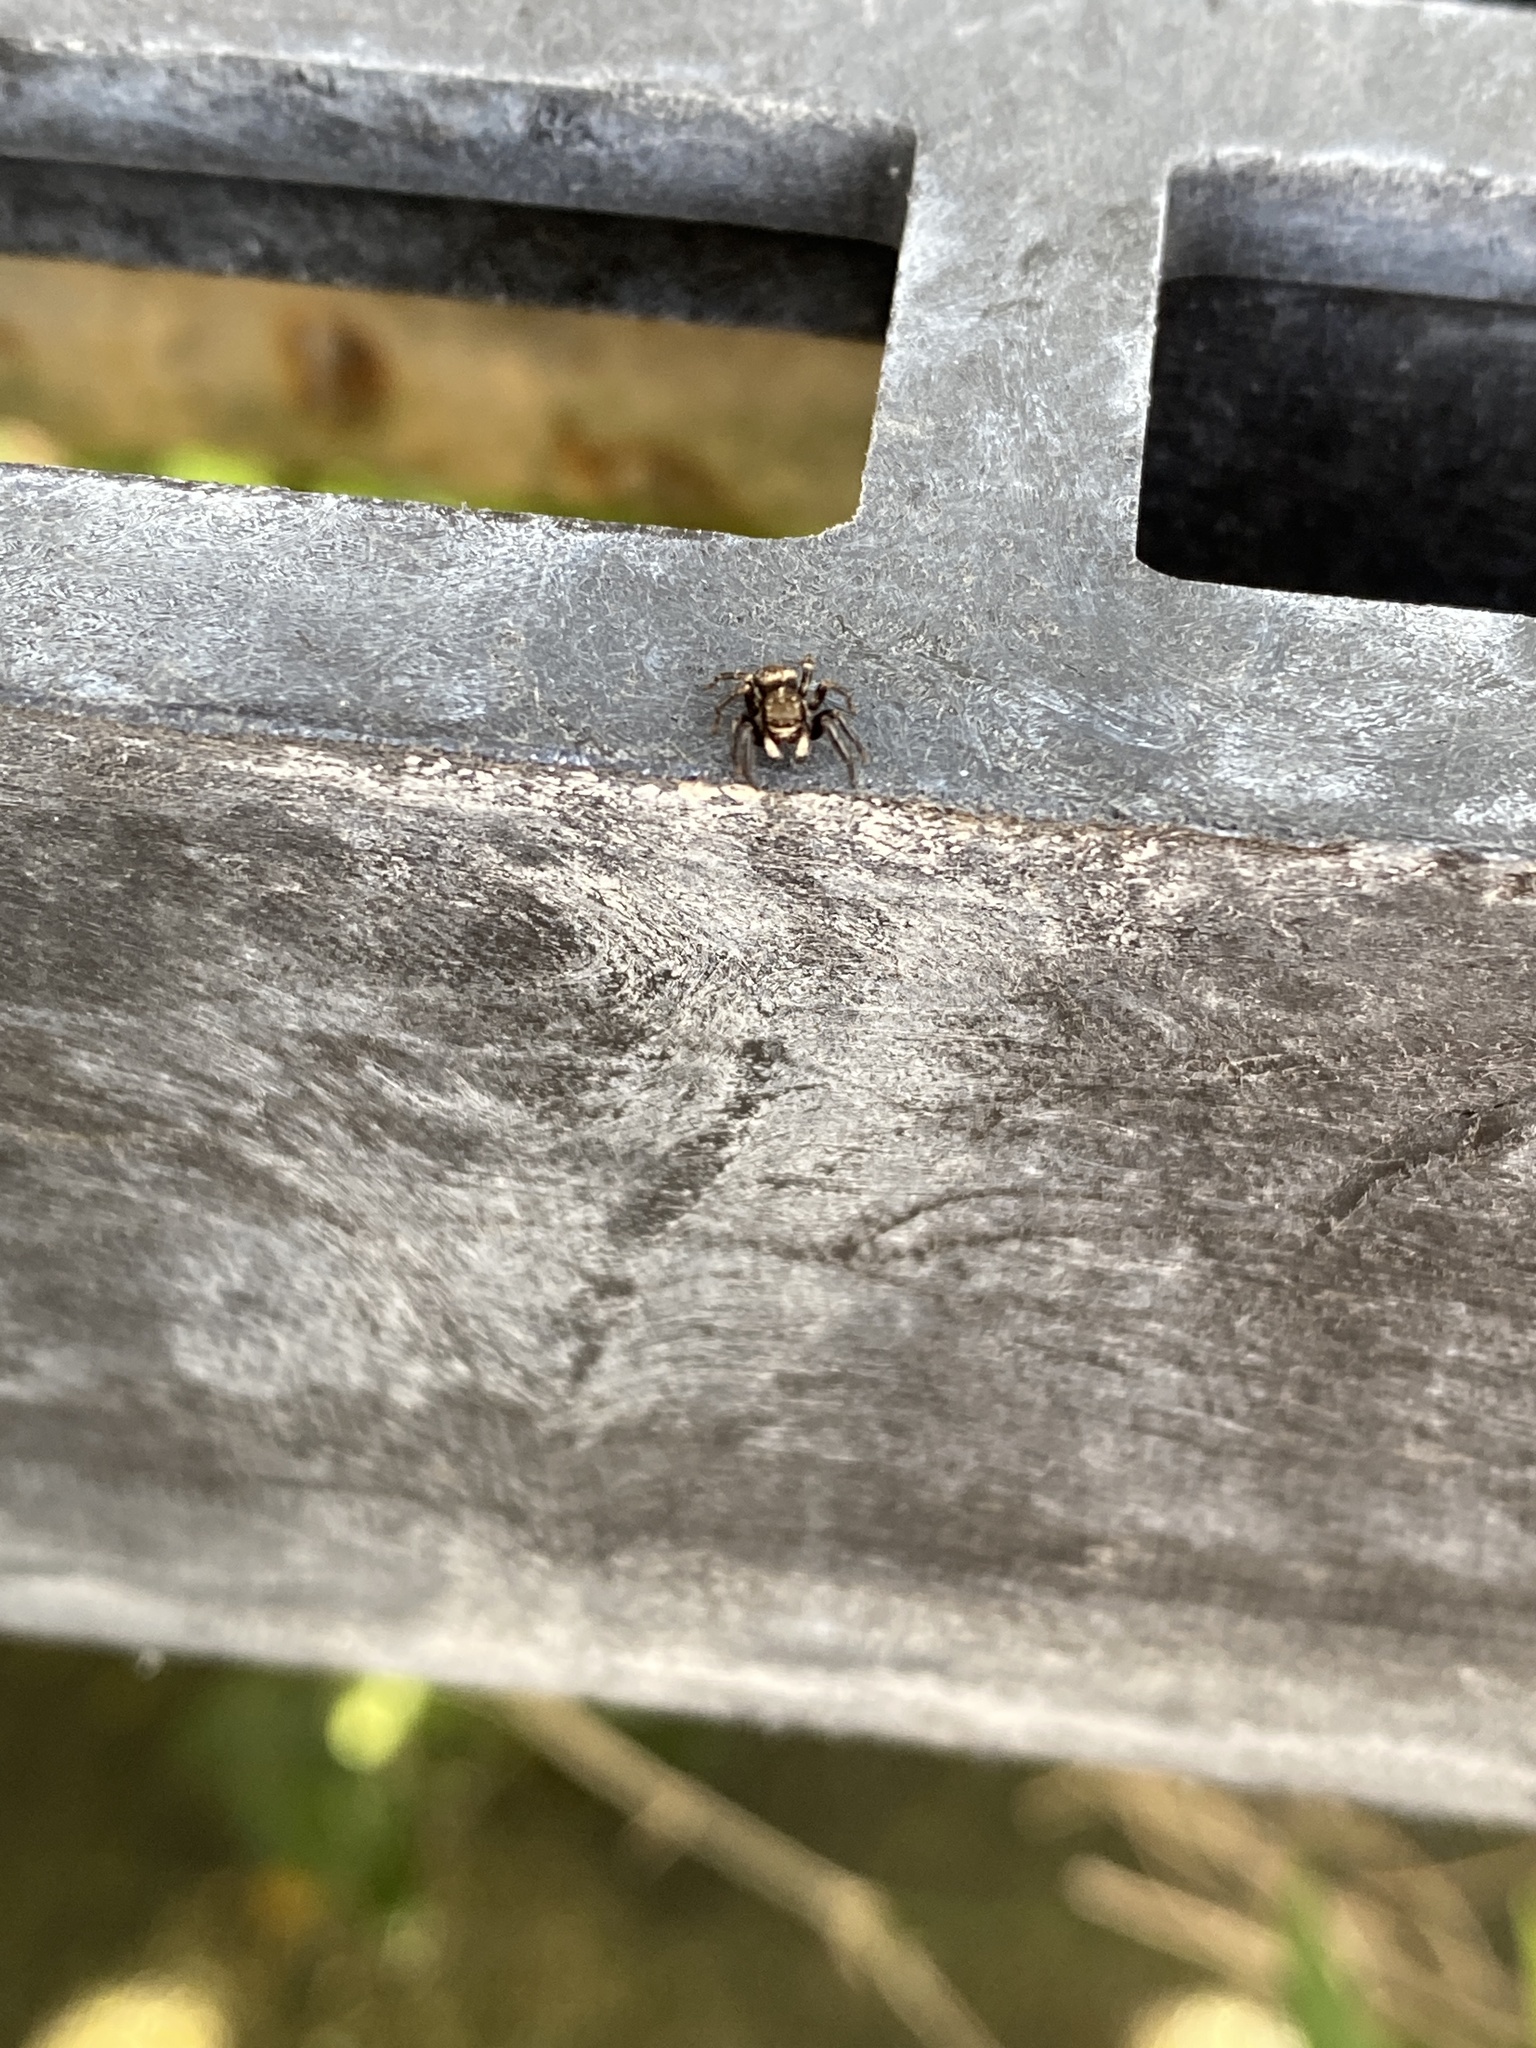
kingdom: Animalia
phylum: Arthropoda
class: Arachnida
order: Araneae
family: Salticidae
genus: Pseudeuophrys
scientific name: Pseudeuophrys erratica
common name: Jumping spider
